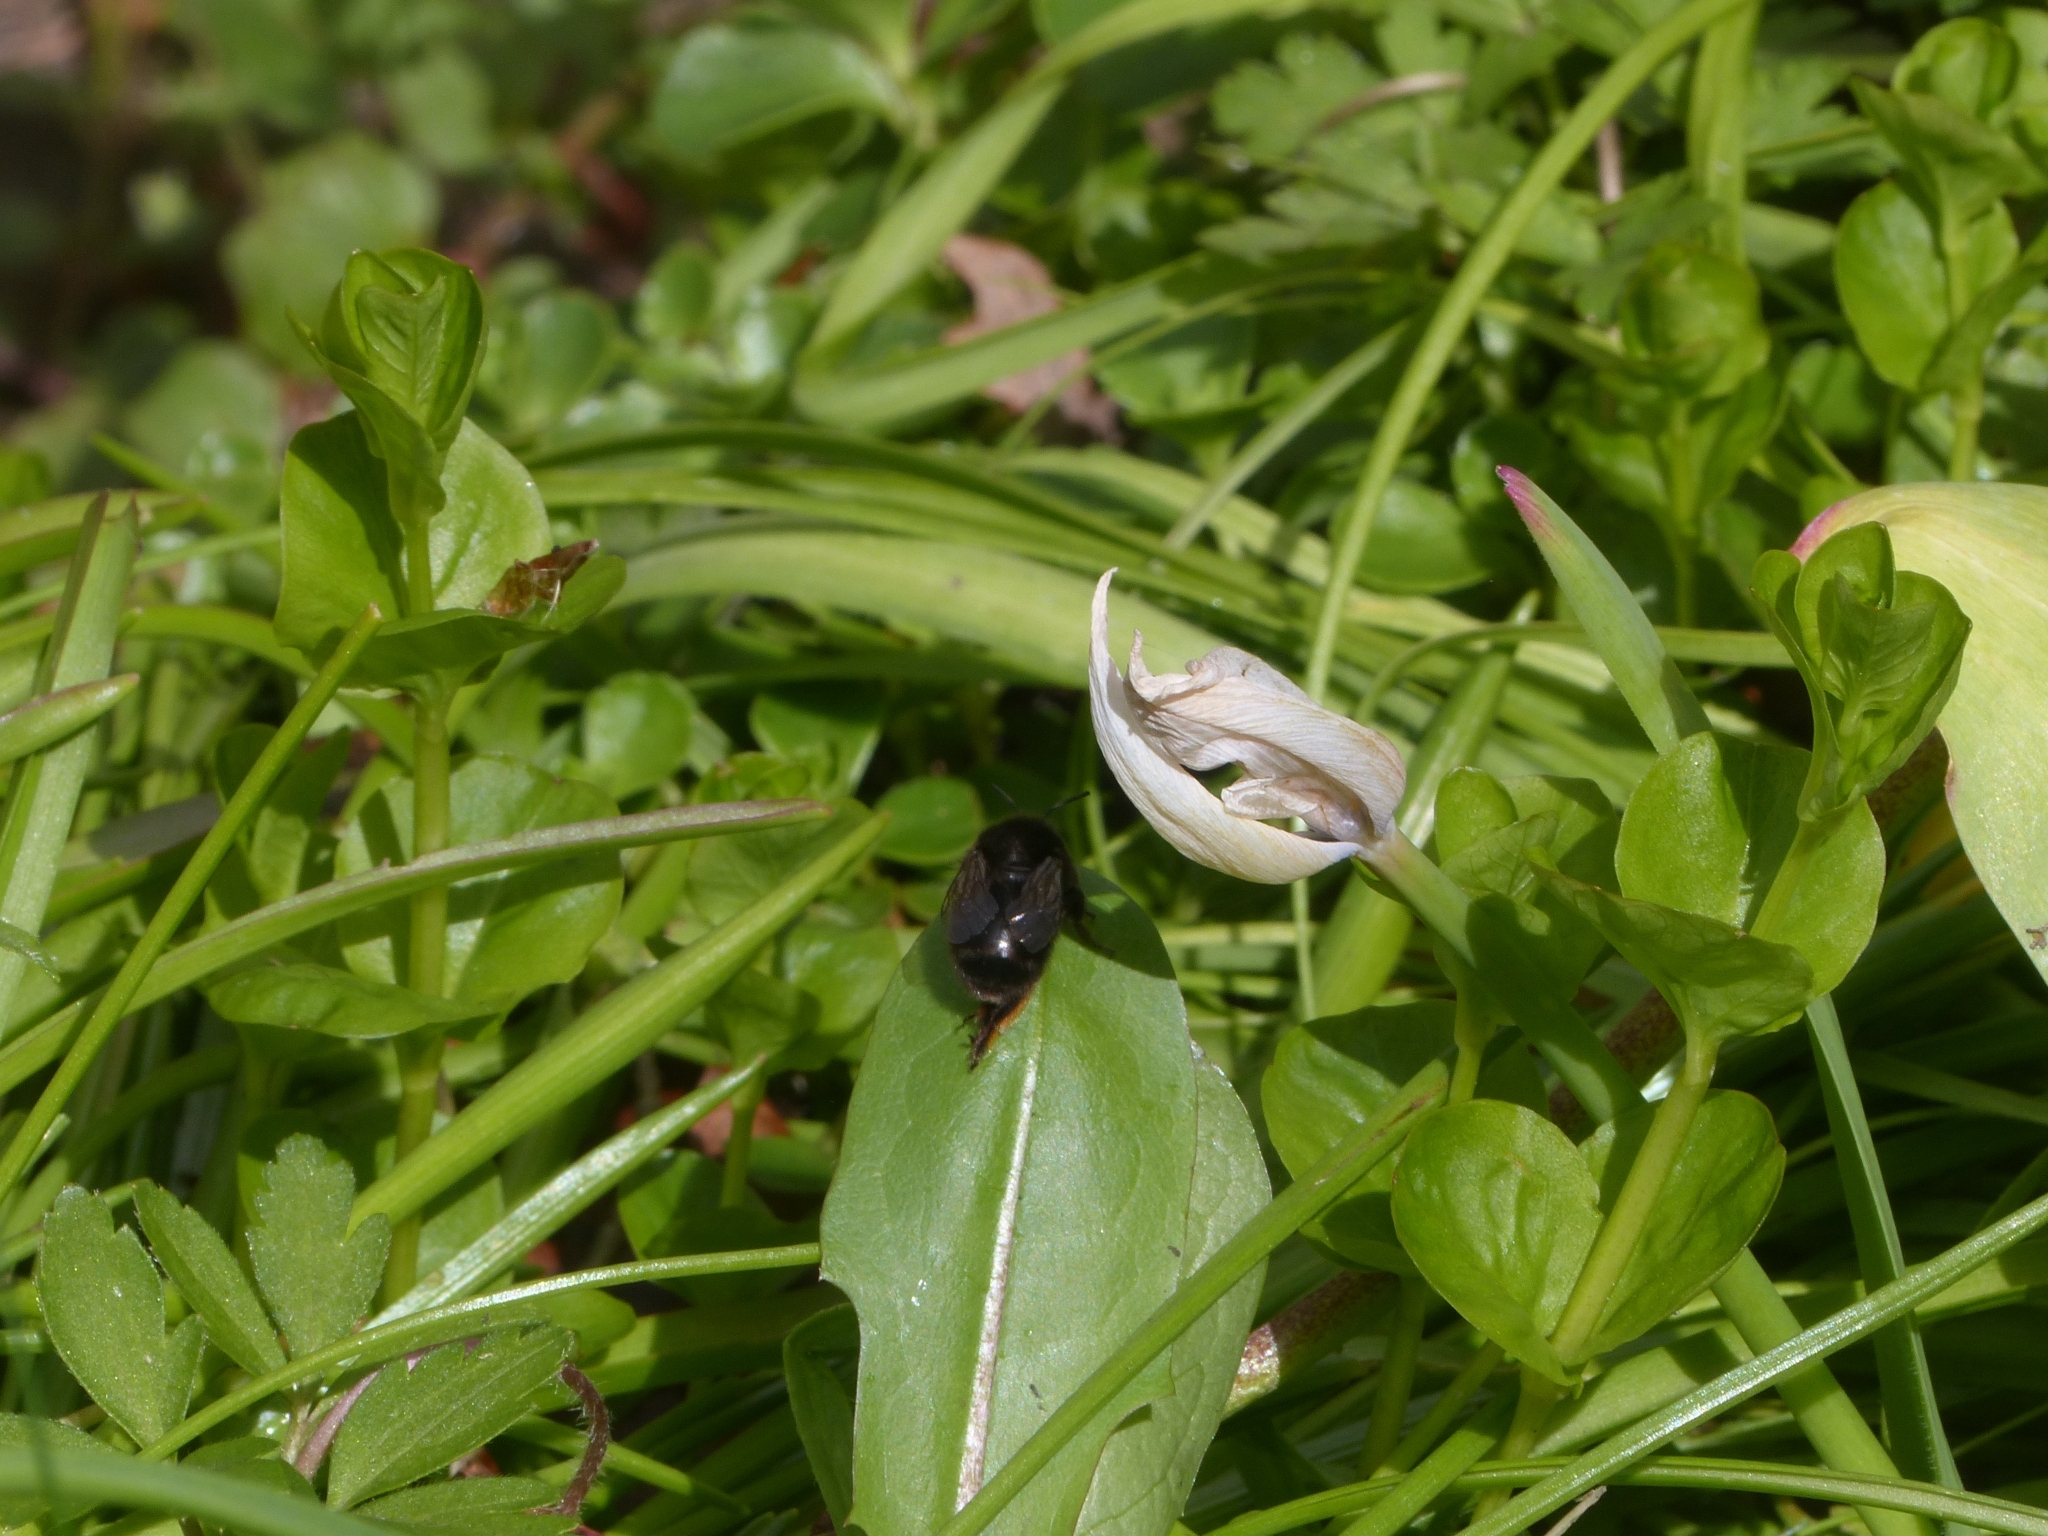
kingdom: Animalia
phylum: Arthropoda
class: Insecta
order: Hymenoptera
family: Apidae
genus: Anthophora
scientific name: Anthophora plumipes
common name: Hairy-footed flower bee
